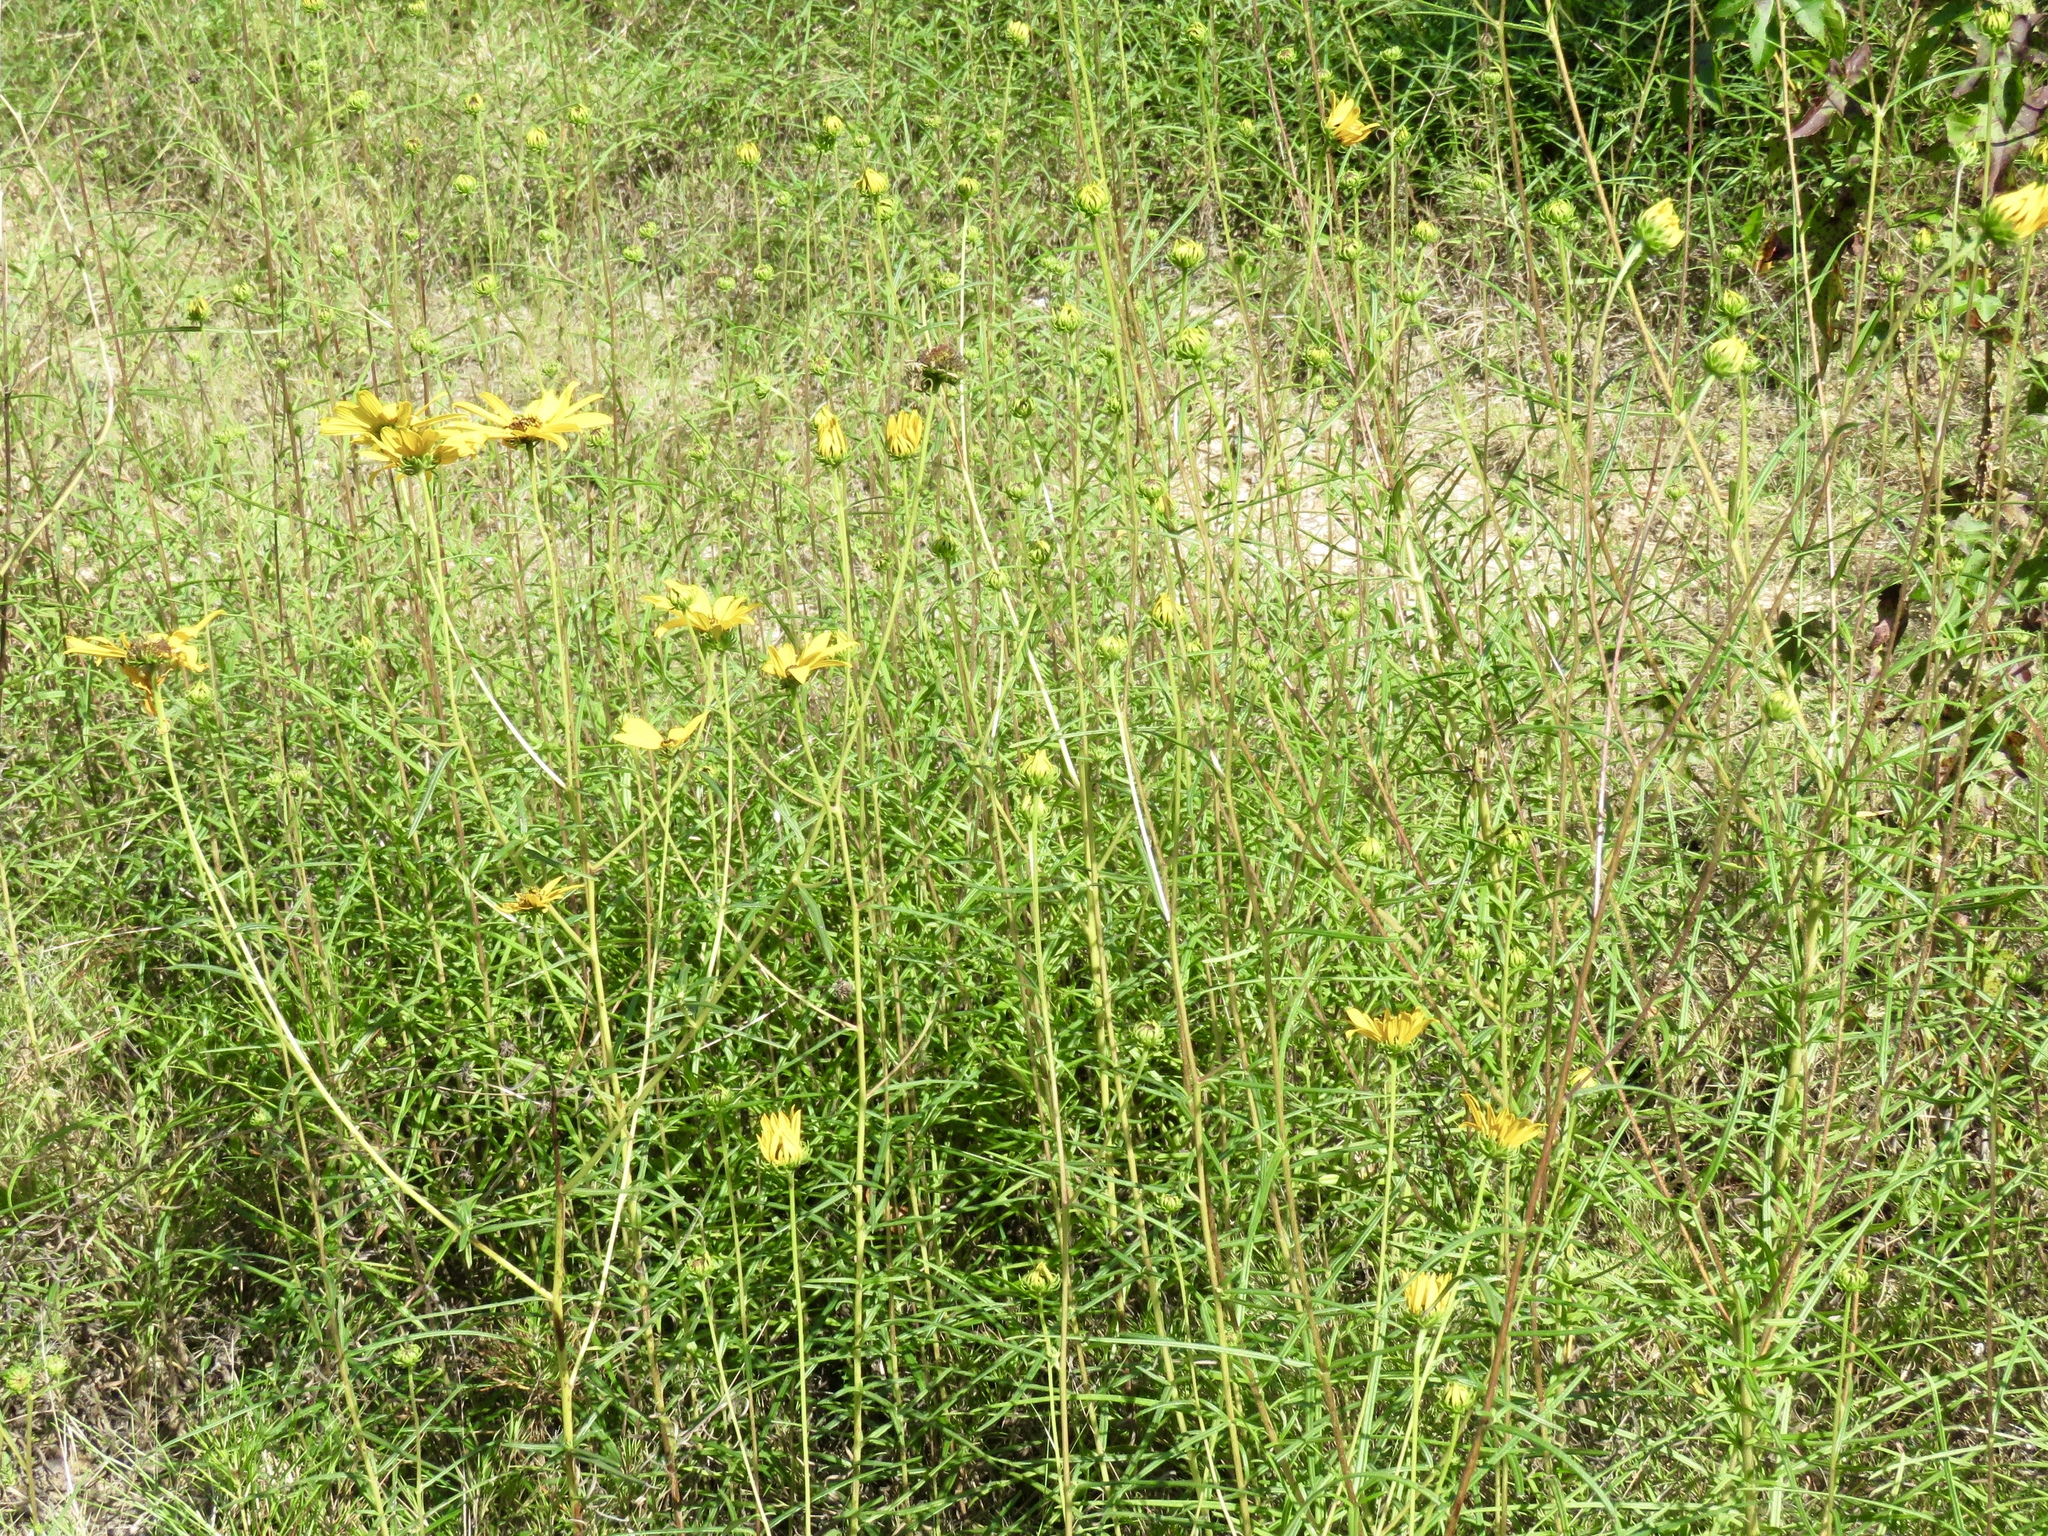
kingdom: Plantae
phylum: Tracheophyta
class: Magnoliopsida
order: Asterales
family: Asteraceae
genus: Helianthus
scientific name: Helianthus angustifolius
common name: Swamp sunflower
